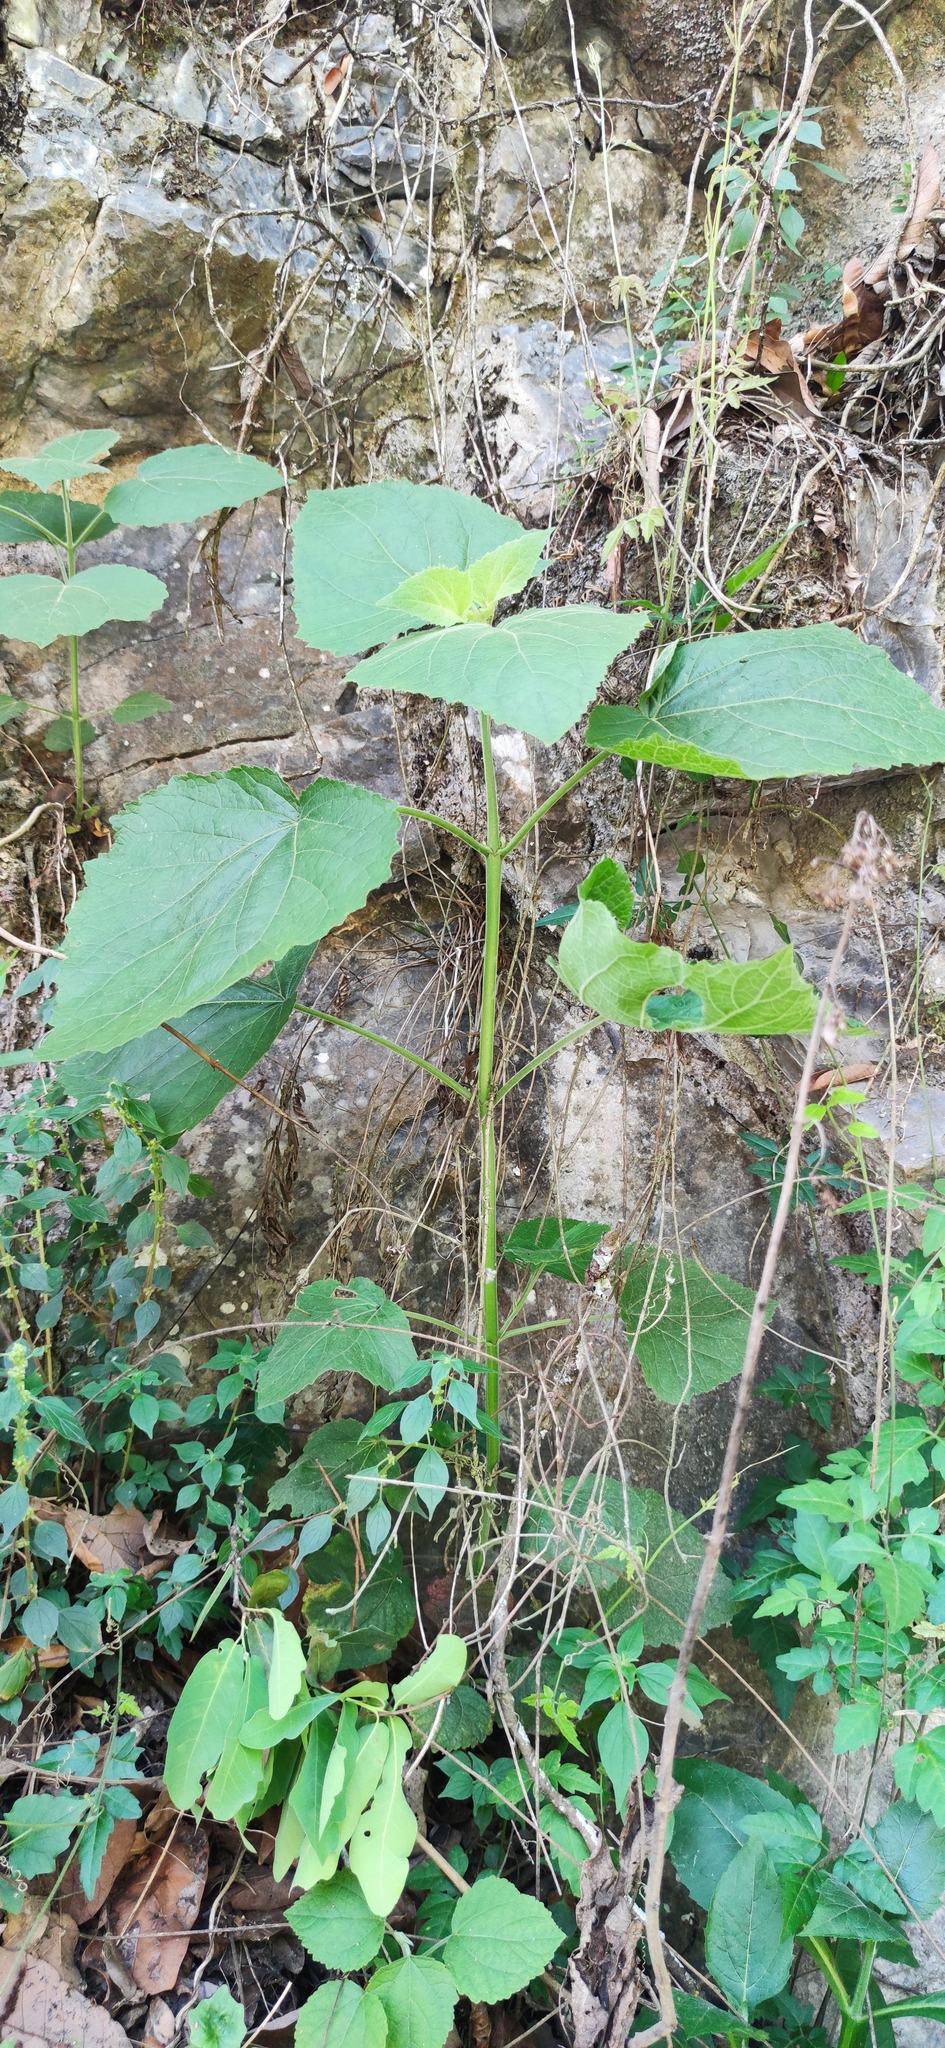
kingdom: Plantae
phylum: Tracheophyta
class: Magnoliopsida
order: Asterales
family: Asteraceae
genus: Peteravenia
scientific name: Peteravenia malvifolia
